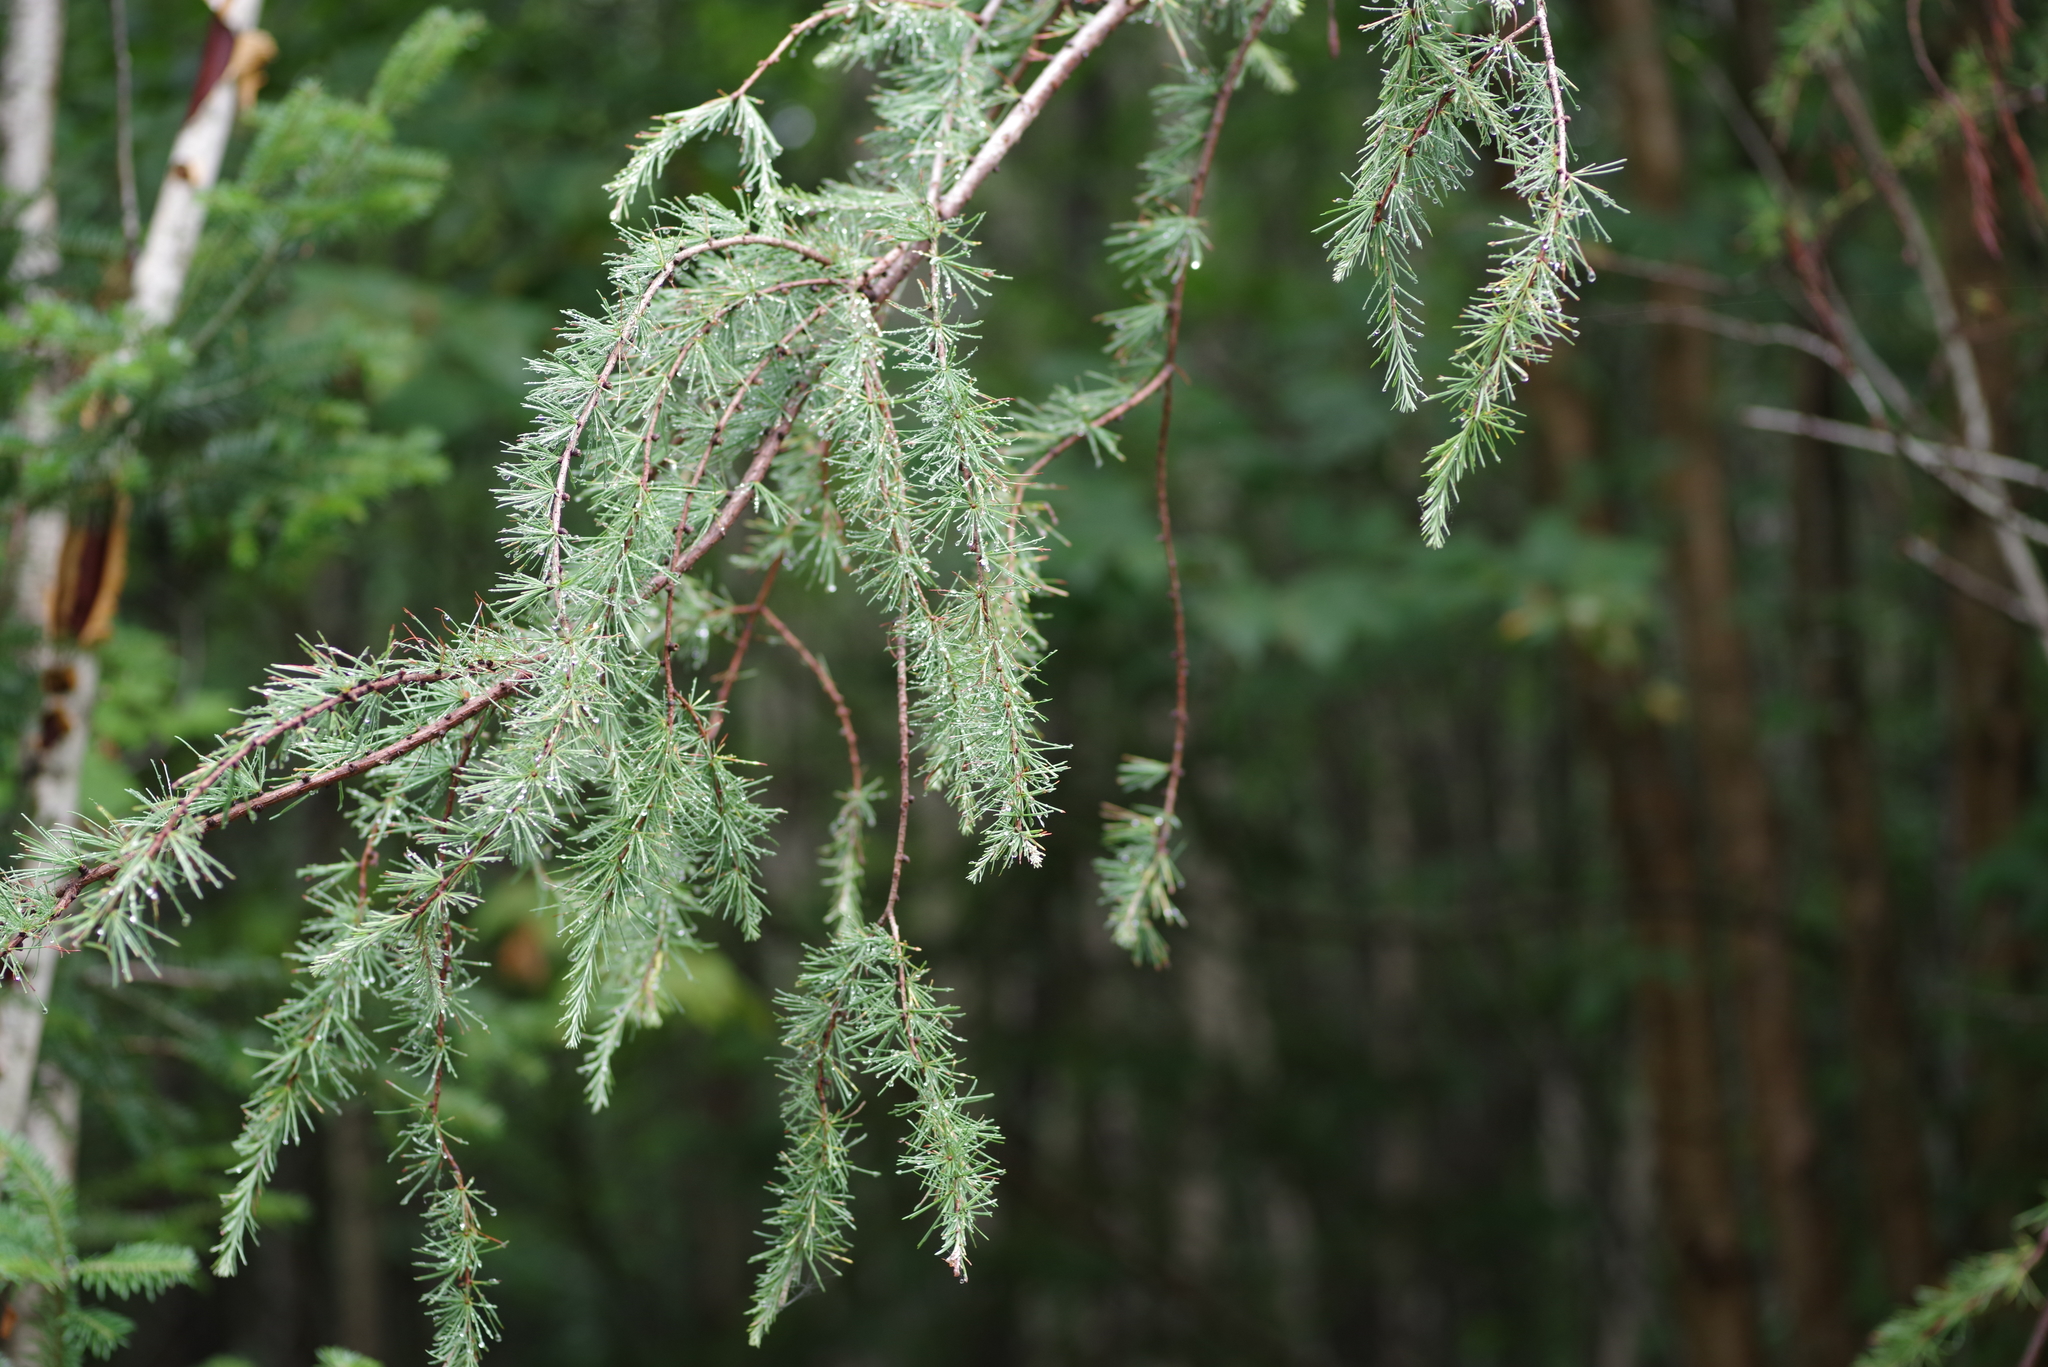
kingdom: Plantae
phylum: Tracheophyta
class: Pinopsida
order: Pinales
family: Pinaceae
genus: Larix
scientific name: Larix laricina
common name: American larch
